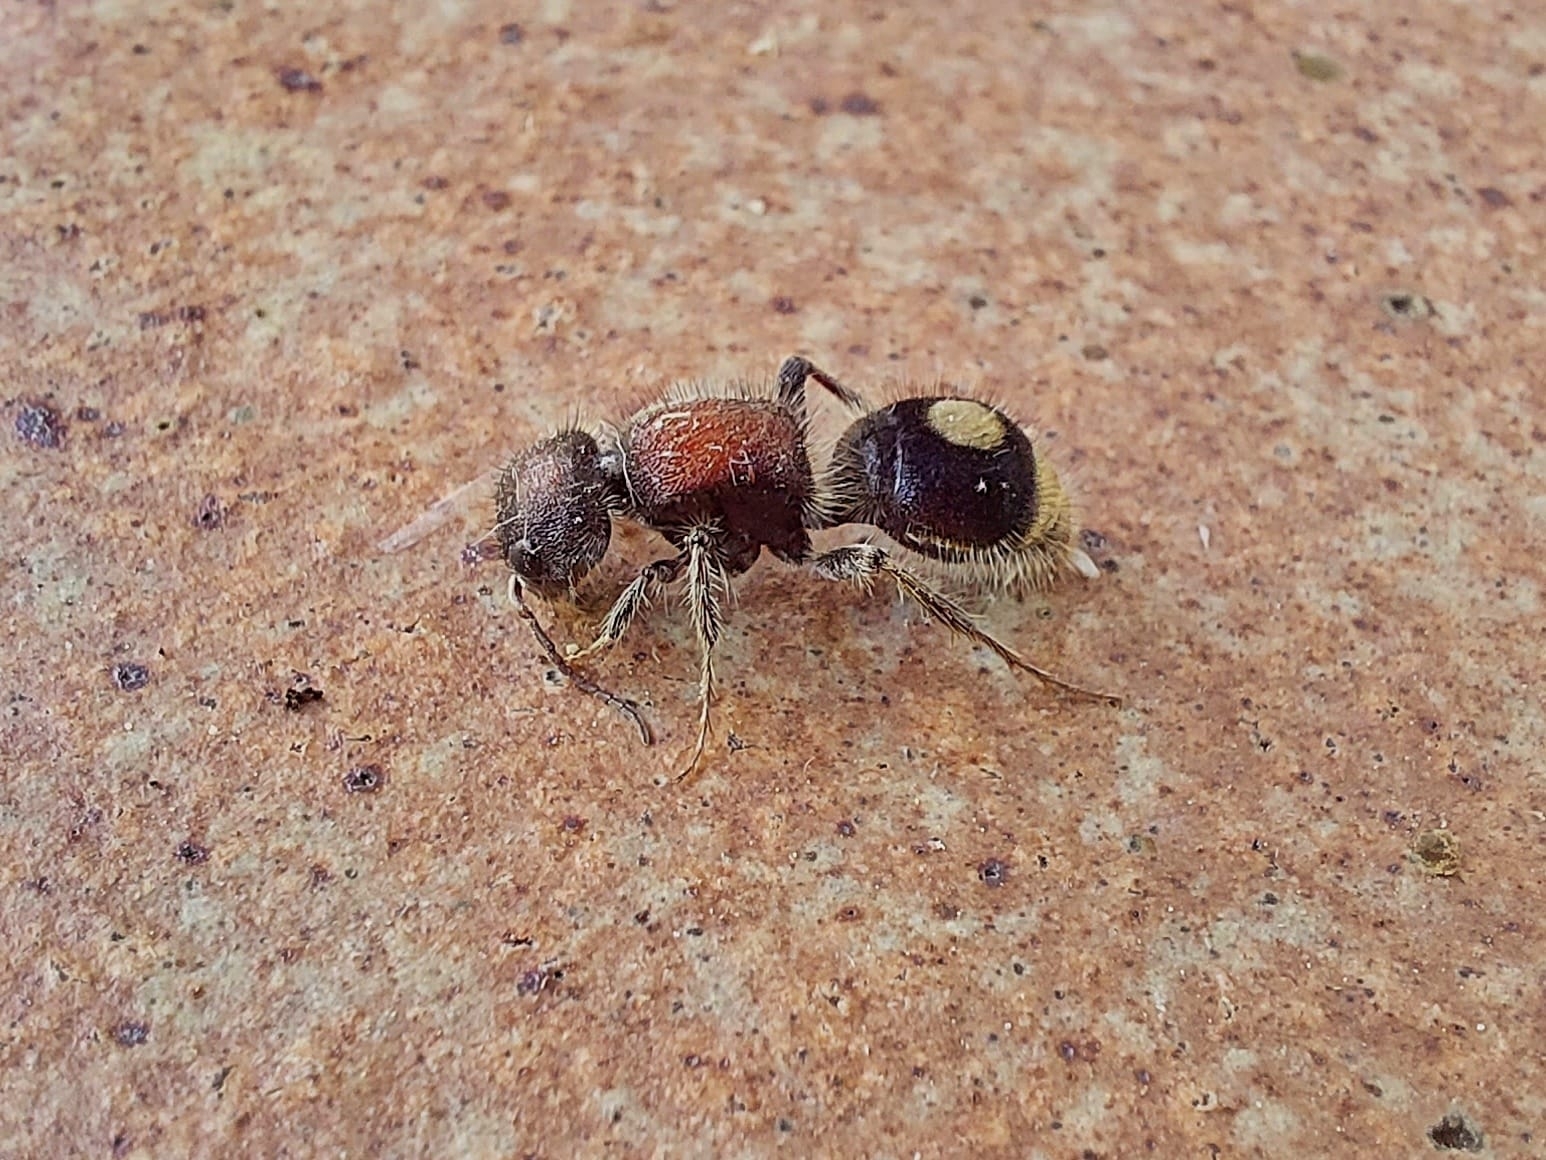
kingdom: Animalia
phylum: Arthropoda
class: Insecta
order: Hymenoptera
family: Mutillidae
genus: Sigilla
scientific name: Sigilla dorsata
